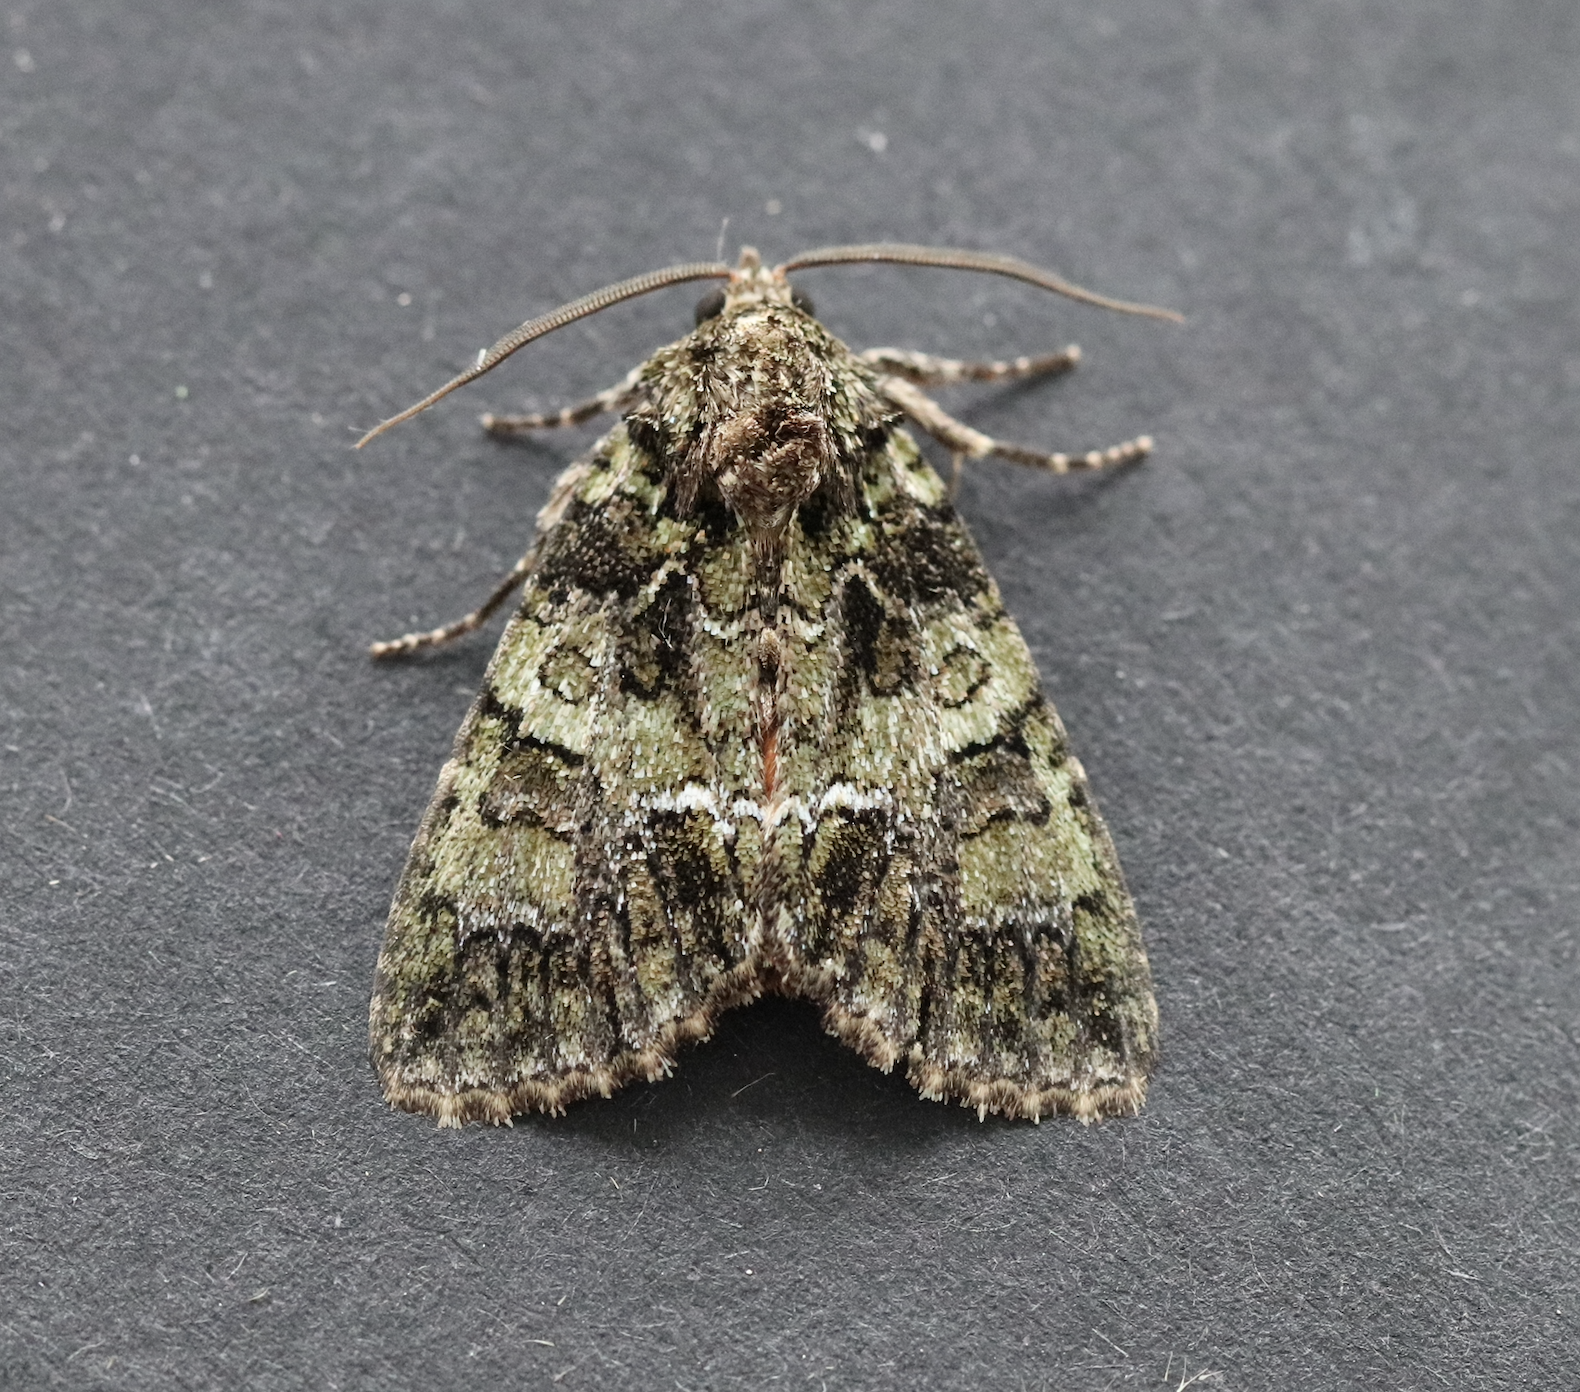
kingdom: Animalia
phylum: Arthropoda
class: Insecta
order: Lepidoptera
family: Noctuidae
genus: Polyphaenis
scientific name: Polyphaenis sericata
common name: Guernsey underwing
